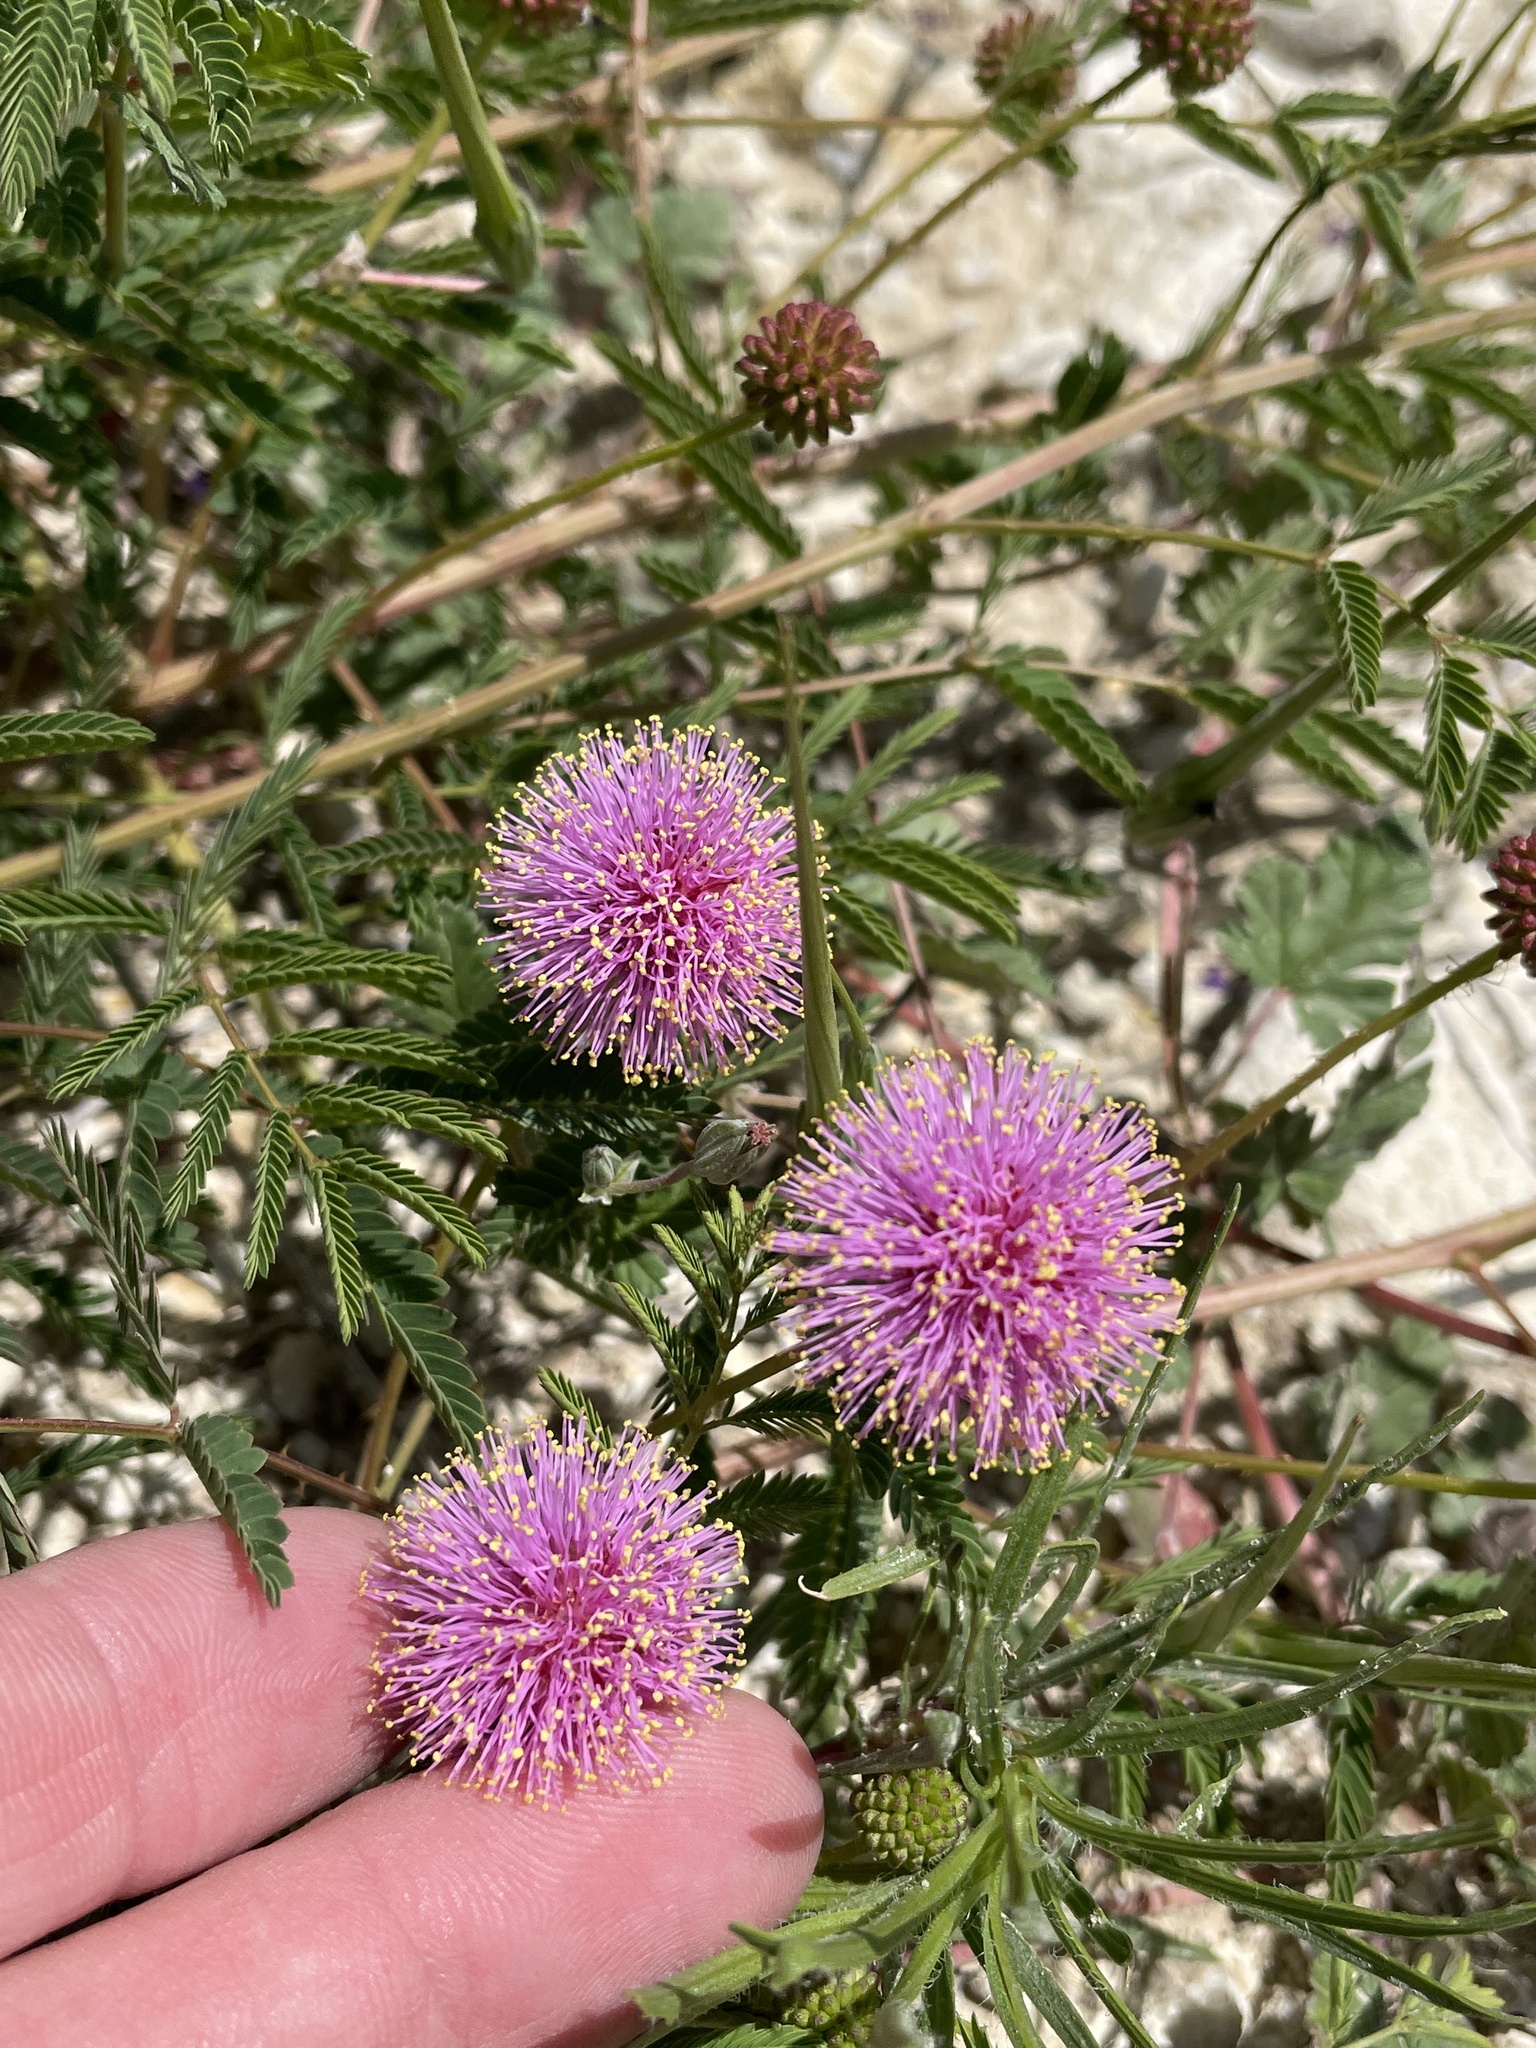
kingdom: Plantae
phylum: Tracheophyta
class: Magnoliopsida
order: Fabales
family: Fabaceae
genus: Mimosa
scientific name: Mimosa quadrivalvis
